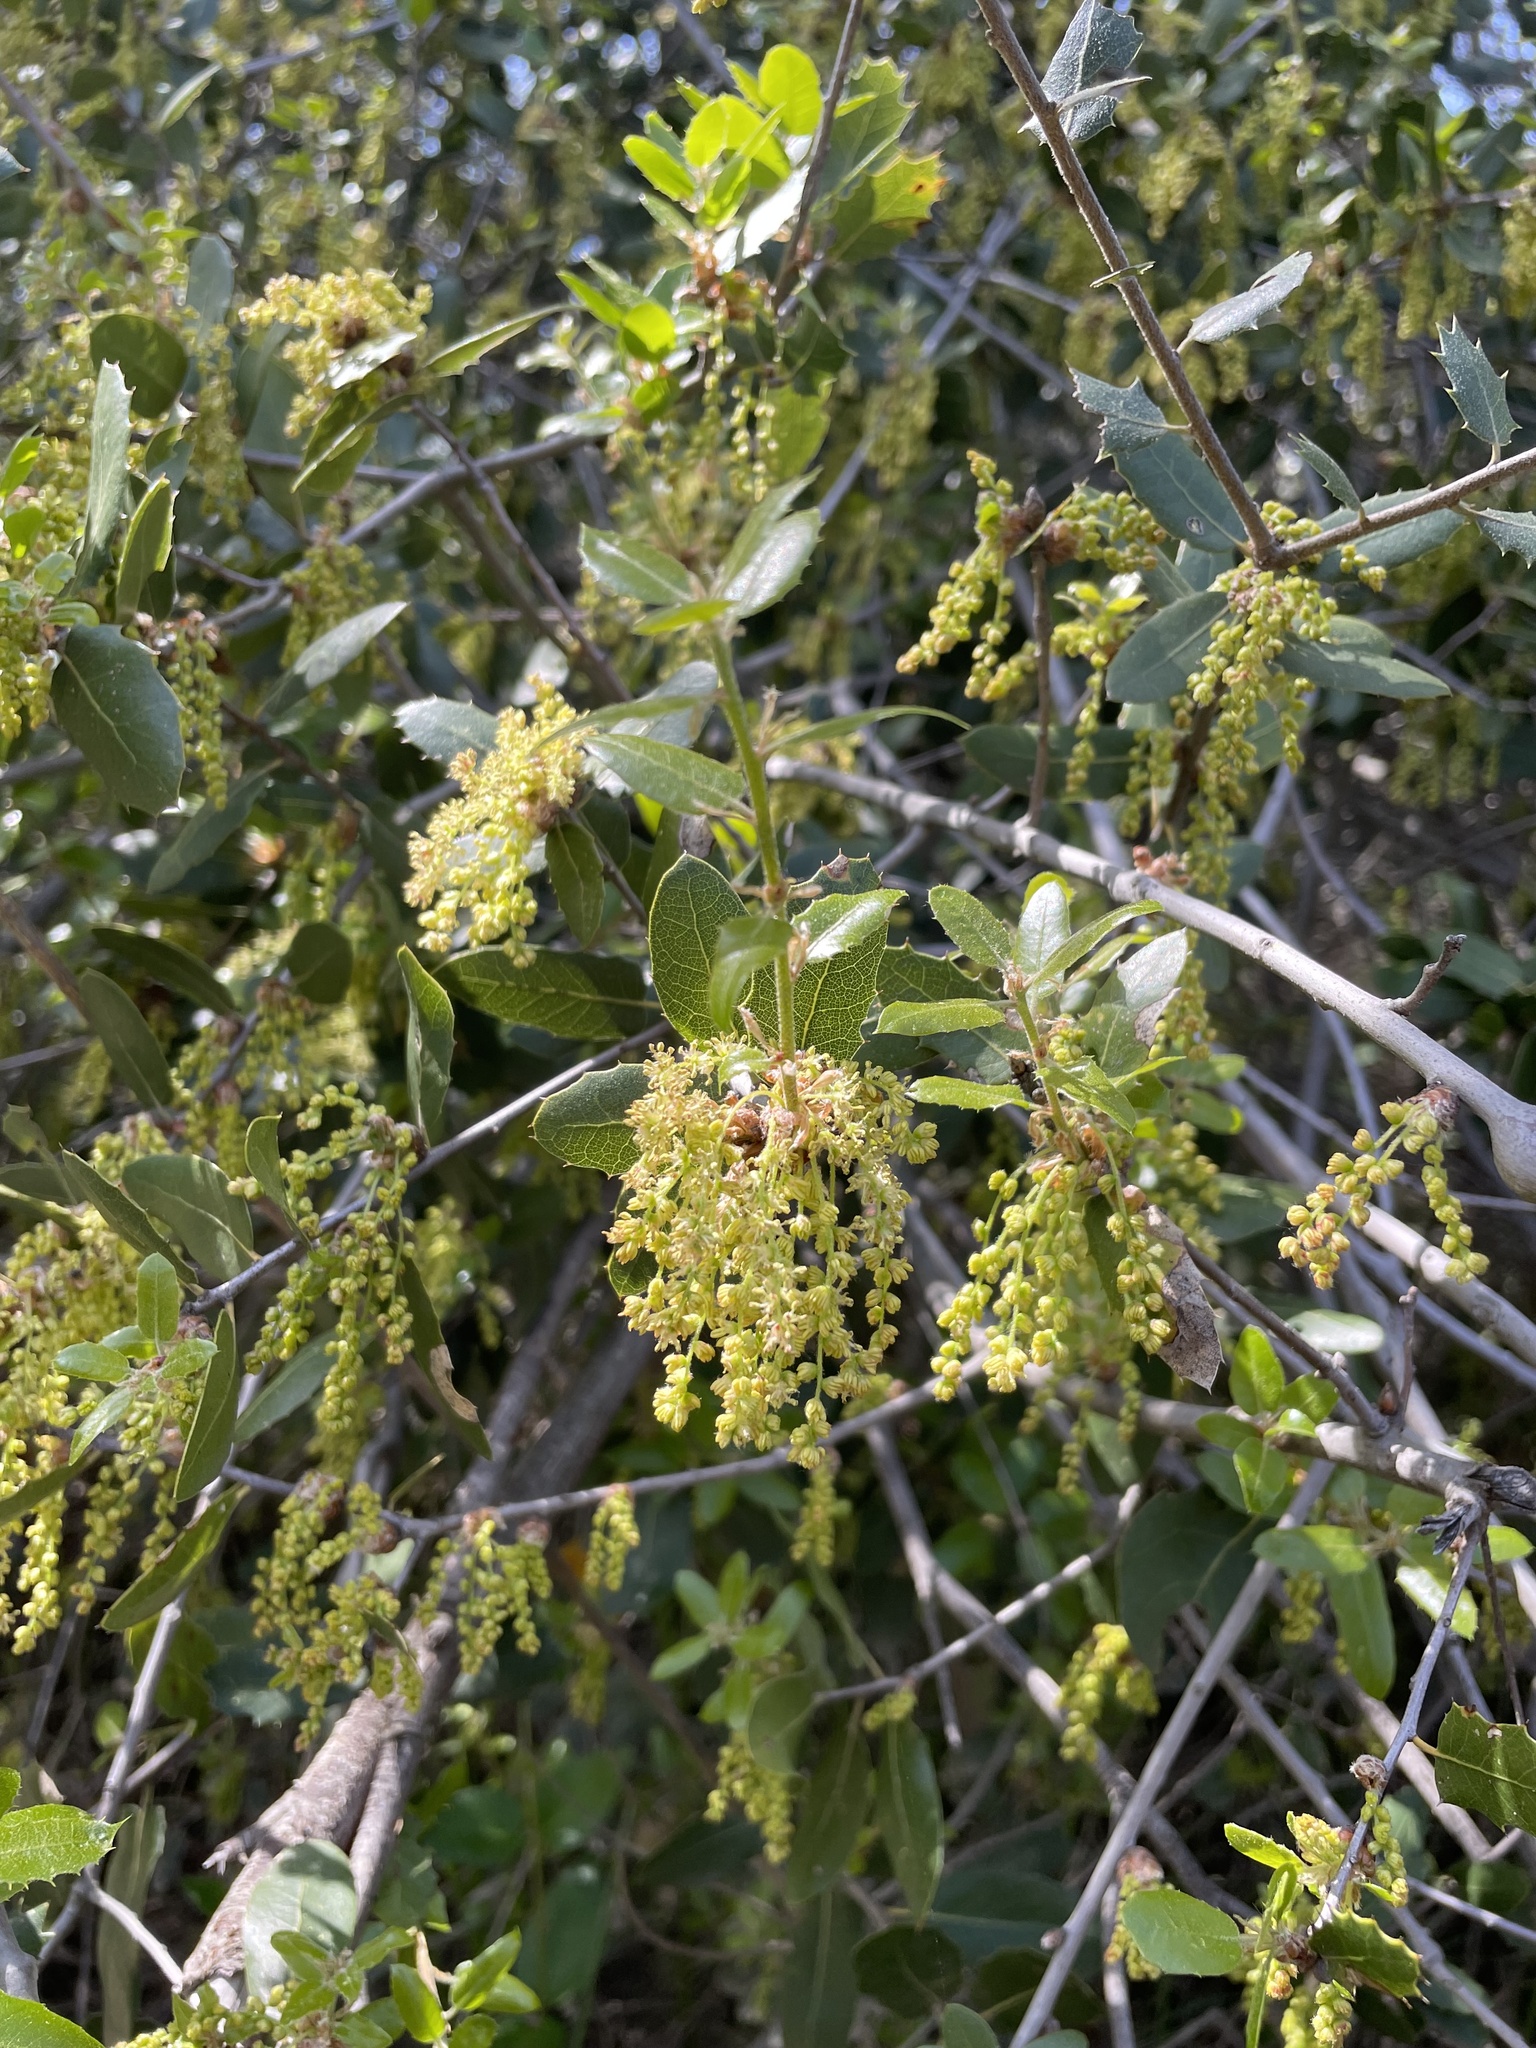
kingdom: Plantae
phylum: Tracheophyta
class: Magnoliopsida
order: Fagales
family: Fagaceae
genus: Quercus
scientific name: Quercus wislizeni
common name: Interior live oak
